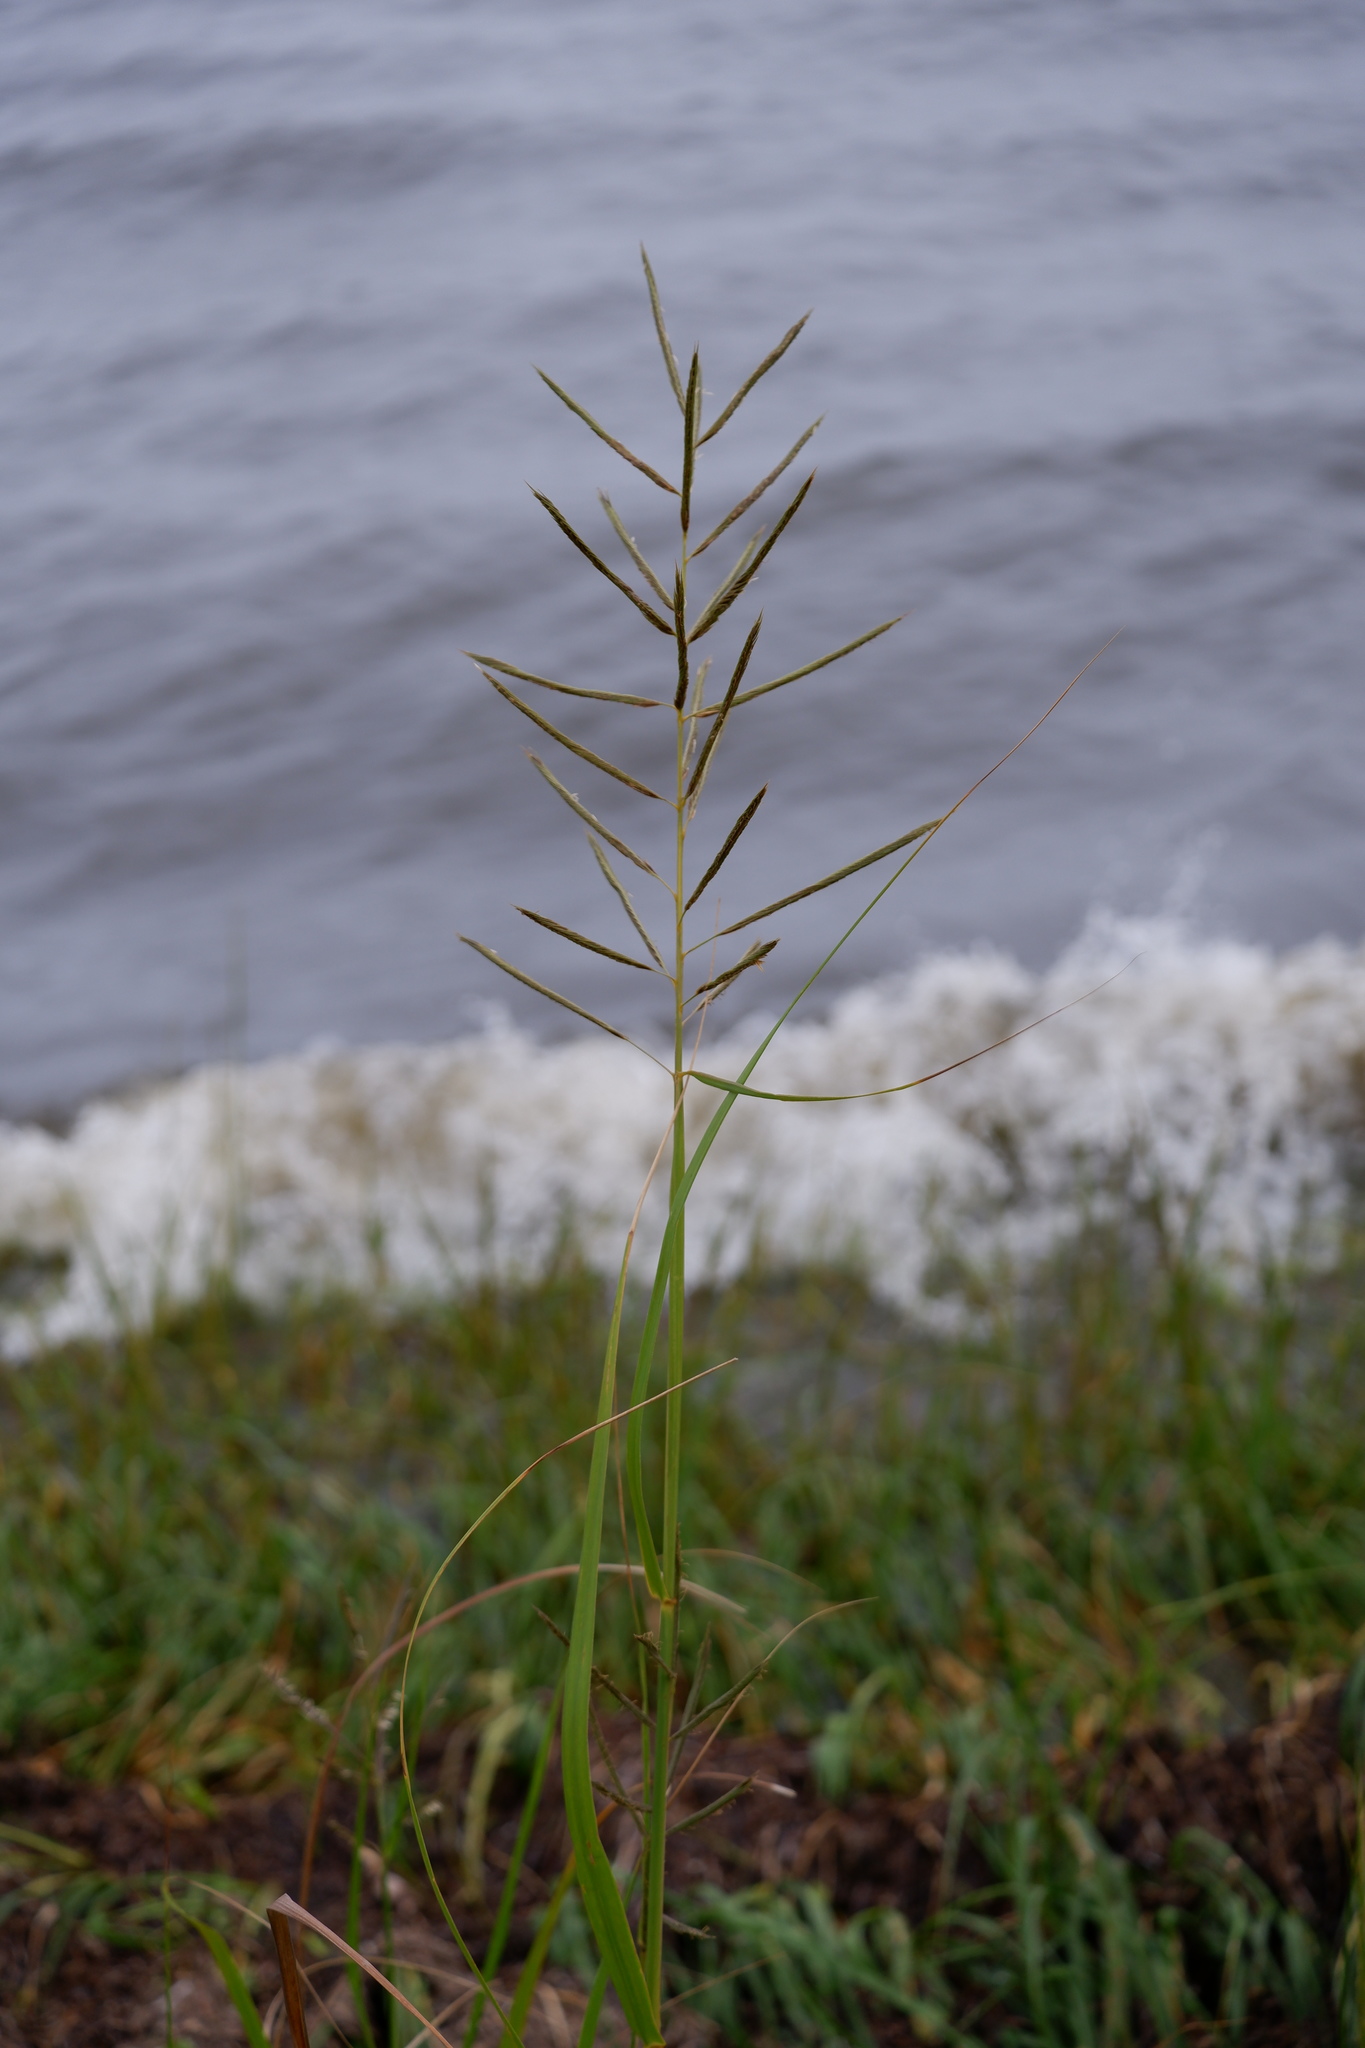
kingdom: Plantae
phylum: Tracheophyta
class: Liliopsida
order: Poales
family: Poaceae
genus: Sporobolus
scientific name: Sporobolus cynosuroides
